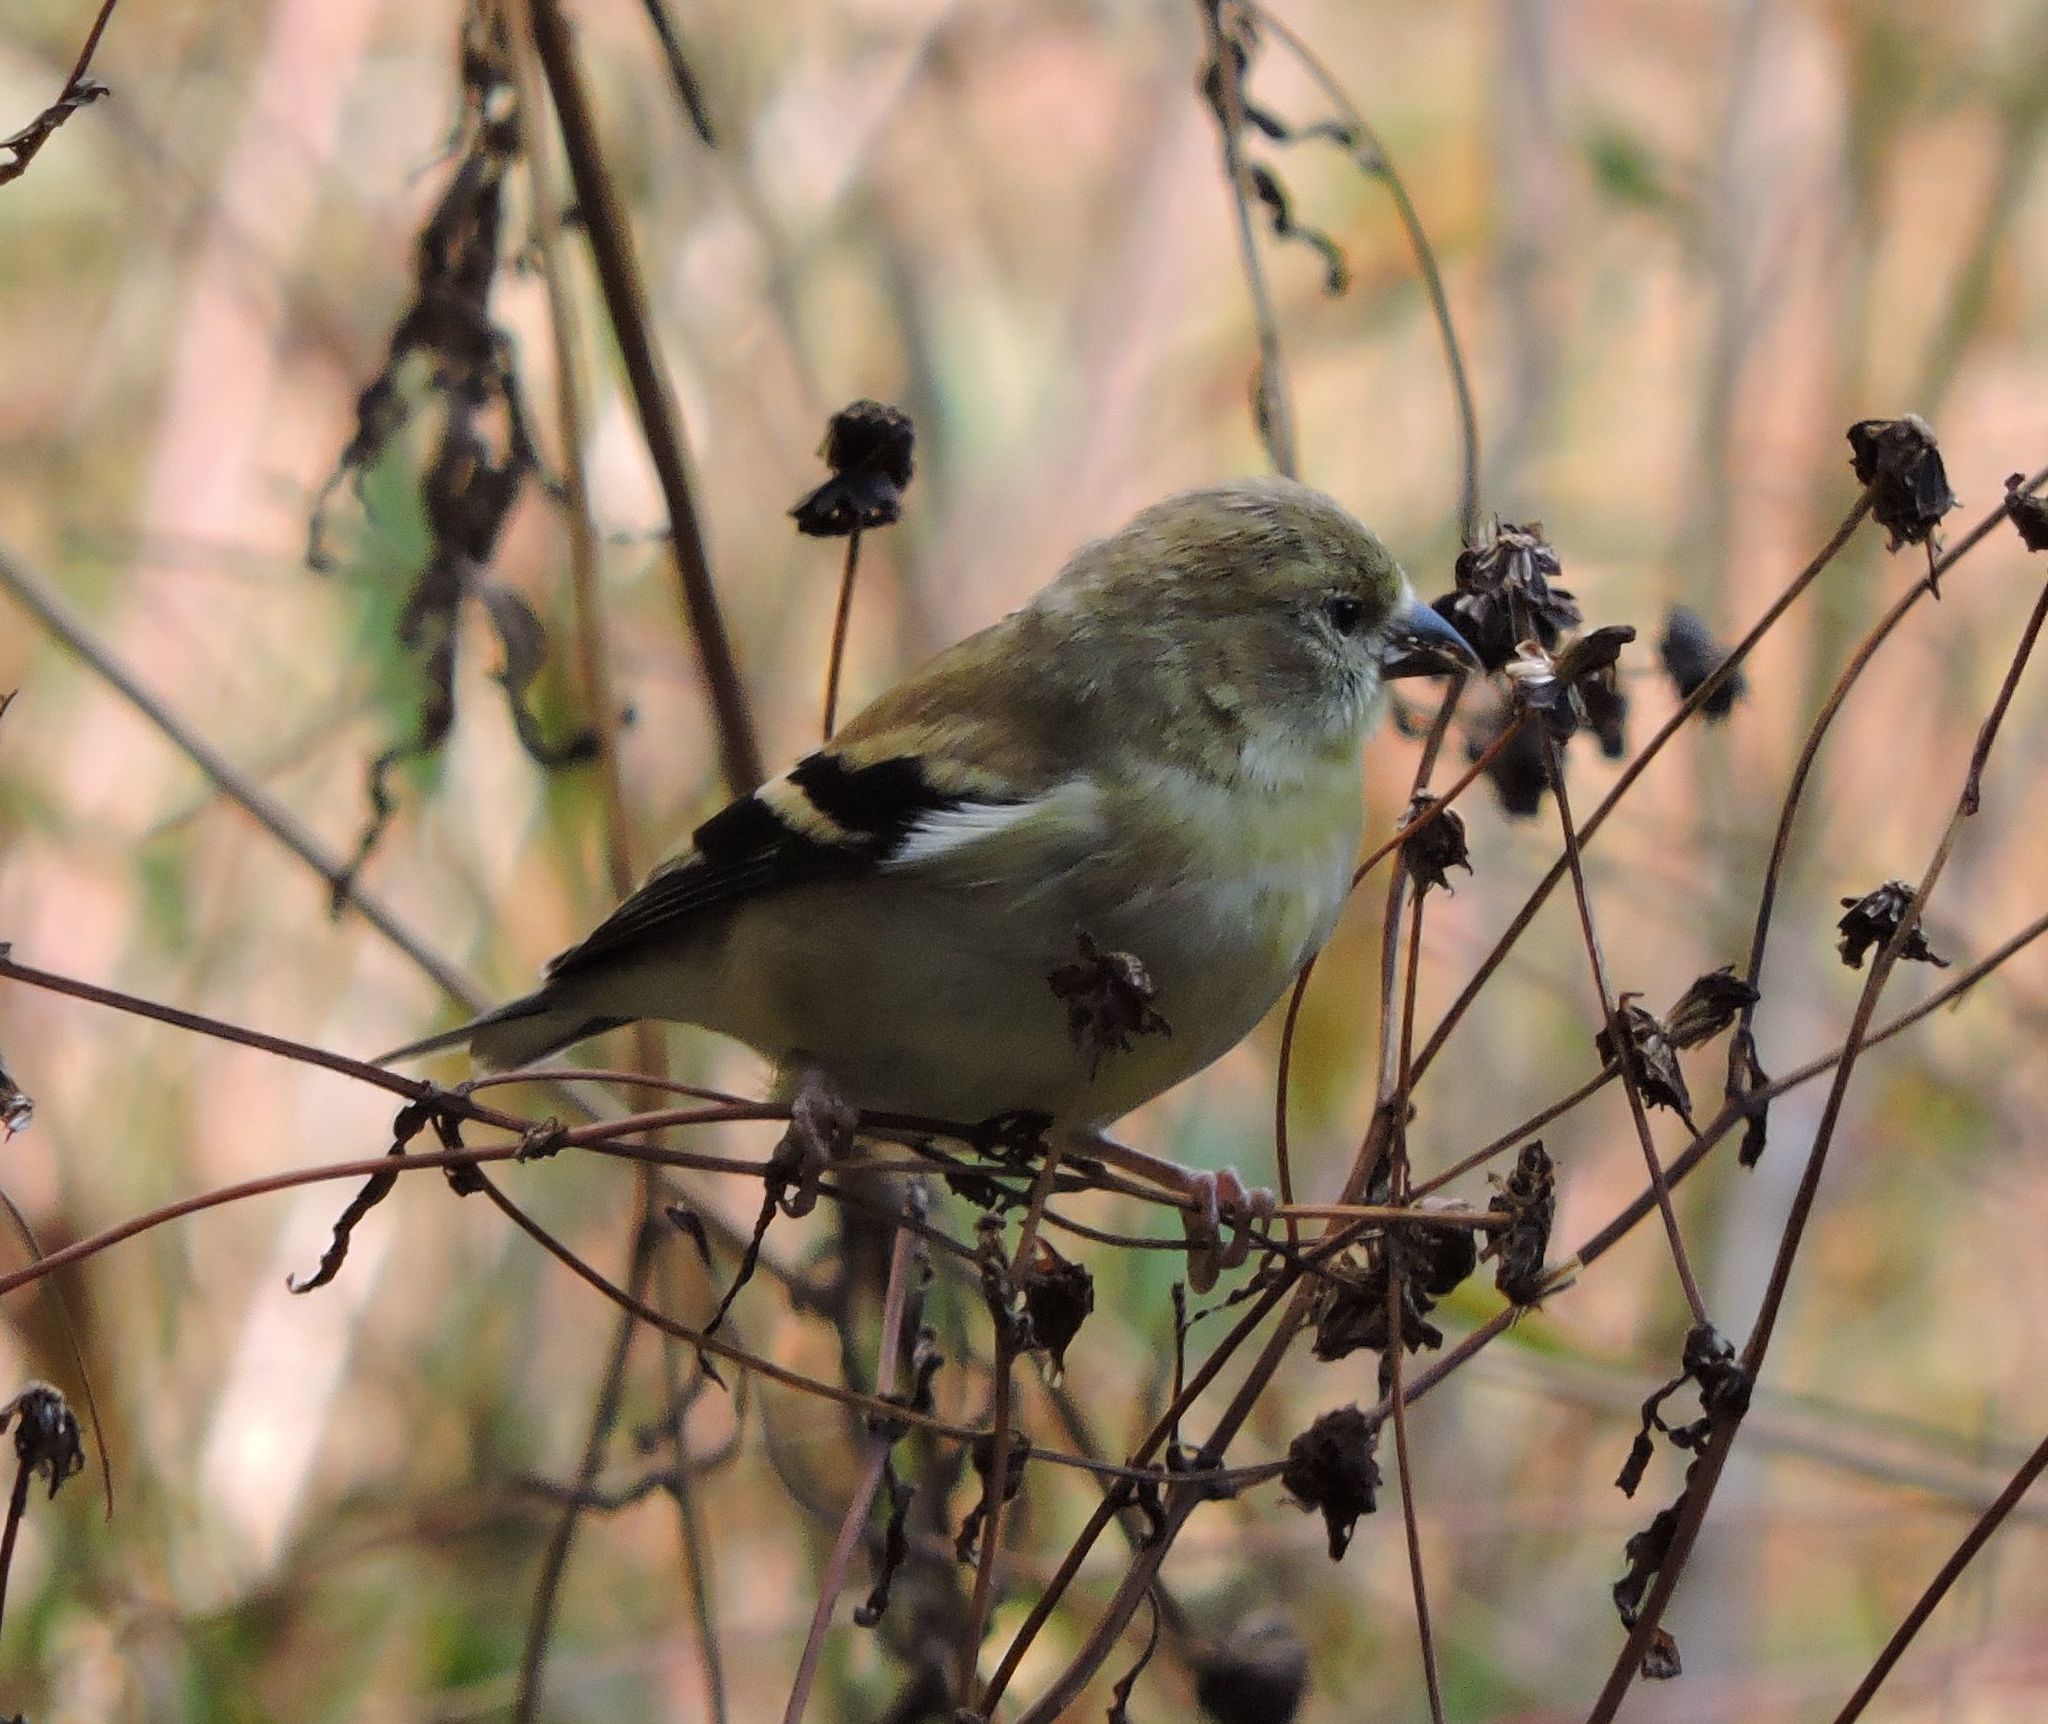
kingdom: Animalia
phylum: Chordata
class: Aves
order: Passeriformes
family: Fringillidae
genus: Spinus
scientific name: Spinus tristis
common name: American goldfinch
